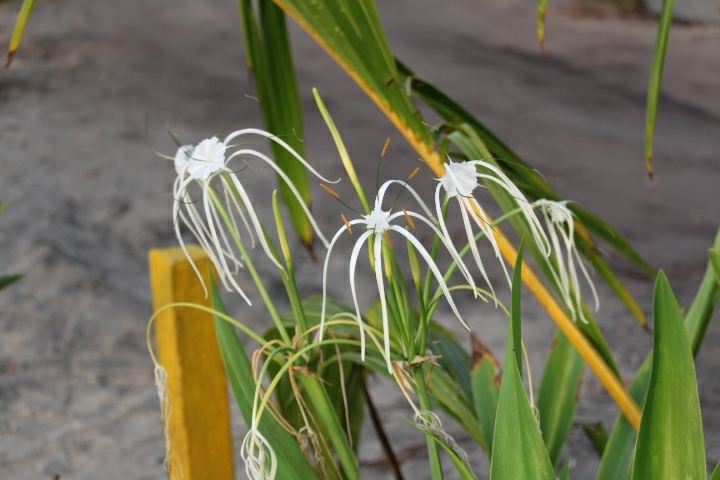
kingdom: Plantae
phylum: Tracheophyta
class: Liliopsida
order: Asparagales
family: Amaryllidaceae
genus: Hymenocallis
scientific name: Hymenocallis littoralis
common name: Beach spiderlily
